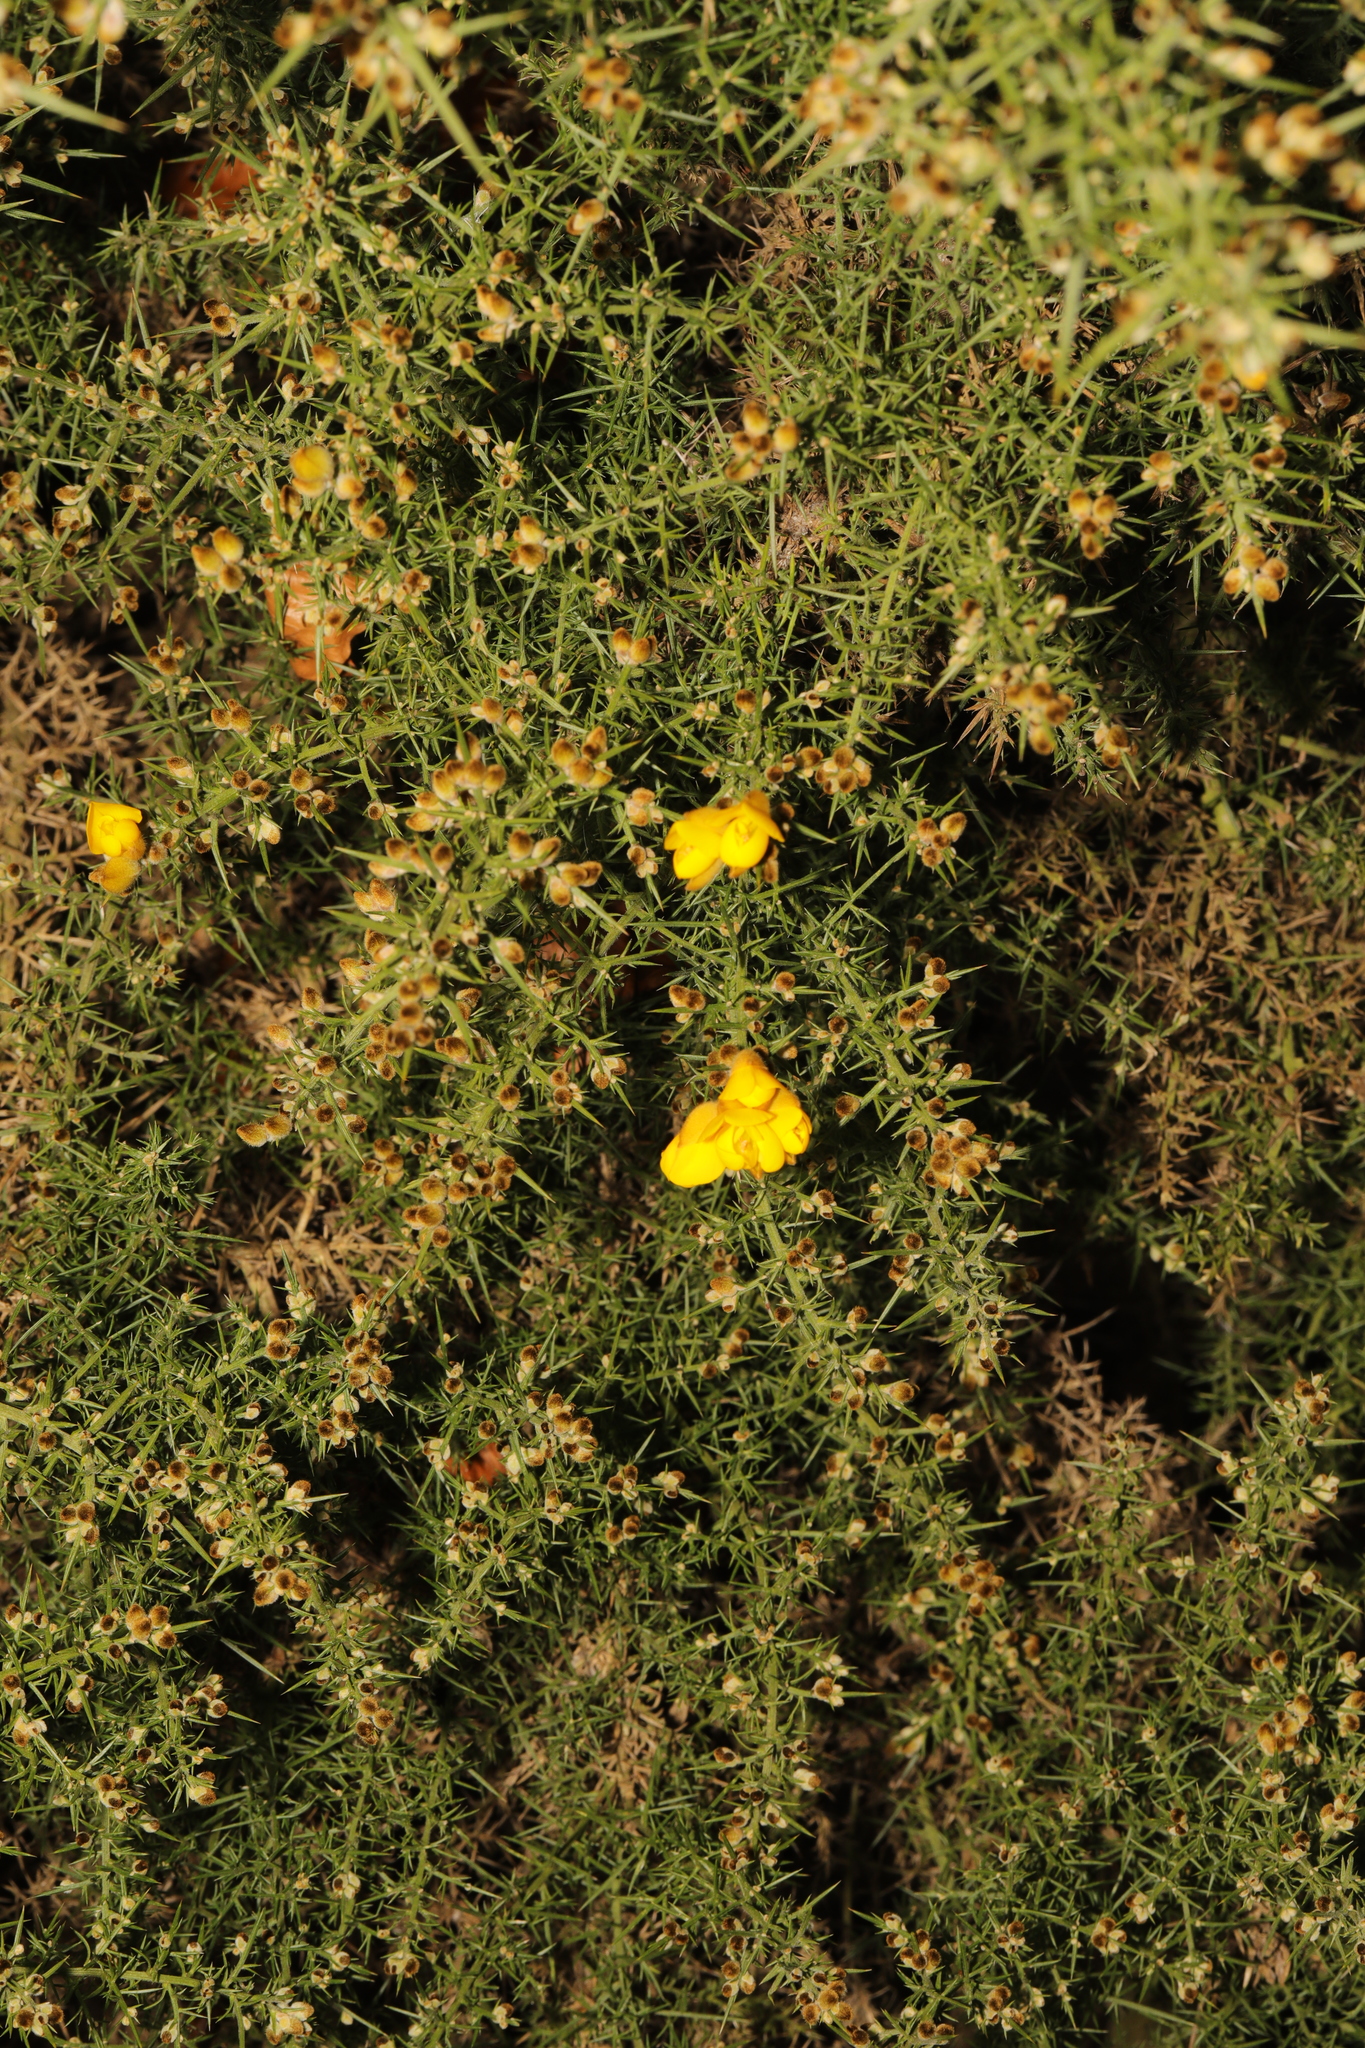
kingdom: Plantae
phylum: Tracheophyta
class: Magnoliopsida
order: Fabales
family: Fabaceae
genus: Ulex
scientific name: Ulex europaeus
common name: Common gorse
